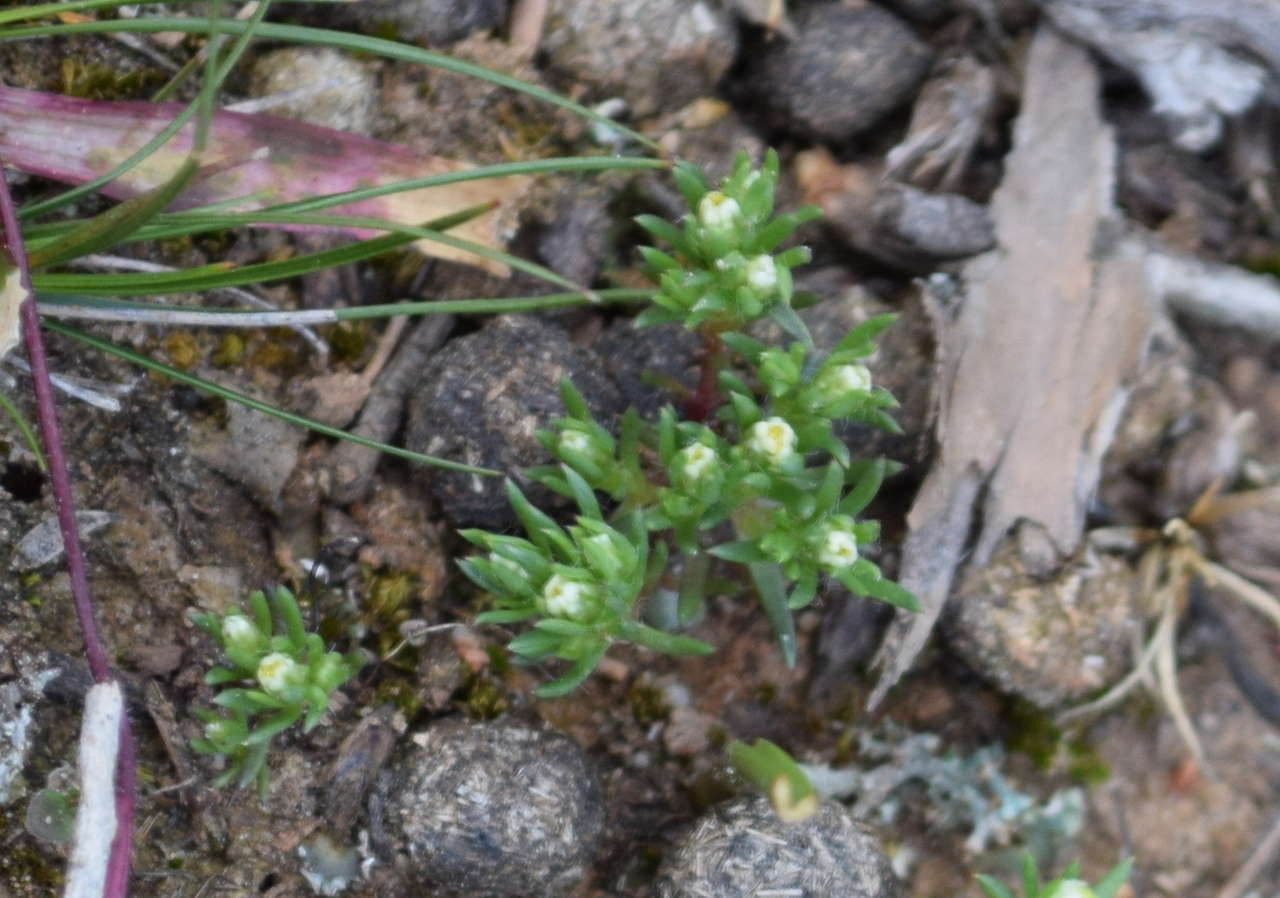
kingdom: Plantae
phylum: Tracheophyta
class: Magnoliopsida
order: Asterales
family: Asteraceae
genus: Hyalosperma
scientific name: Hyalosperma demissum
